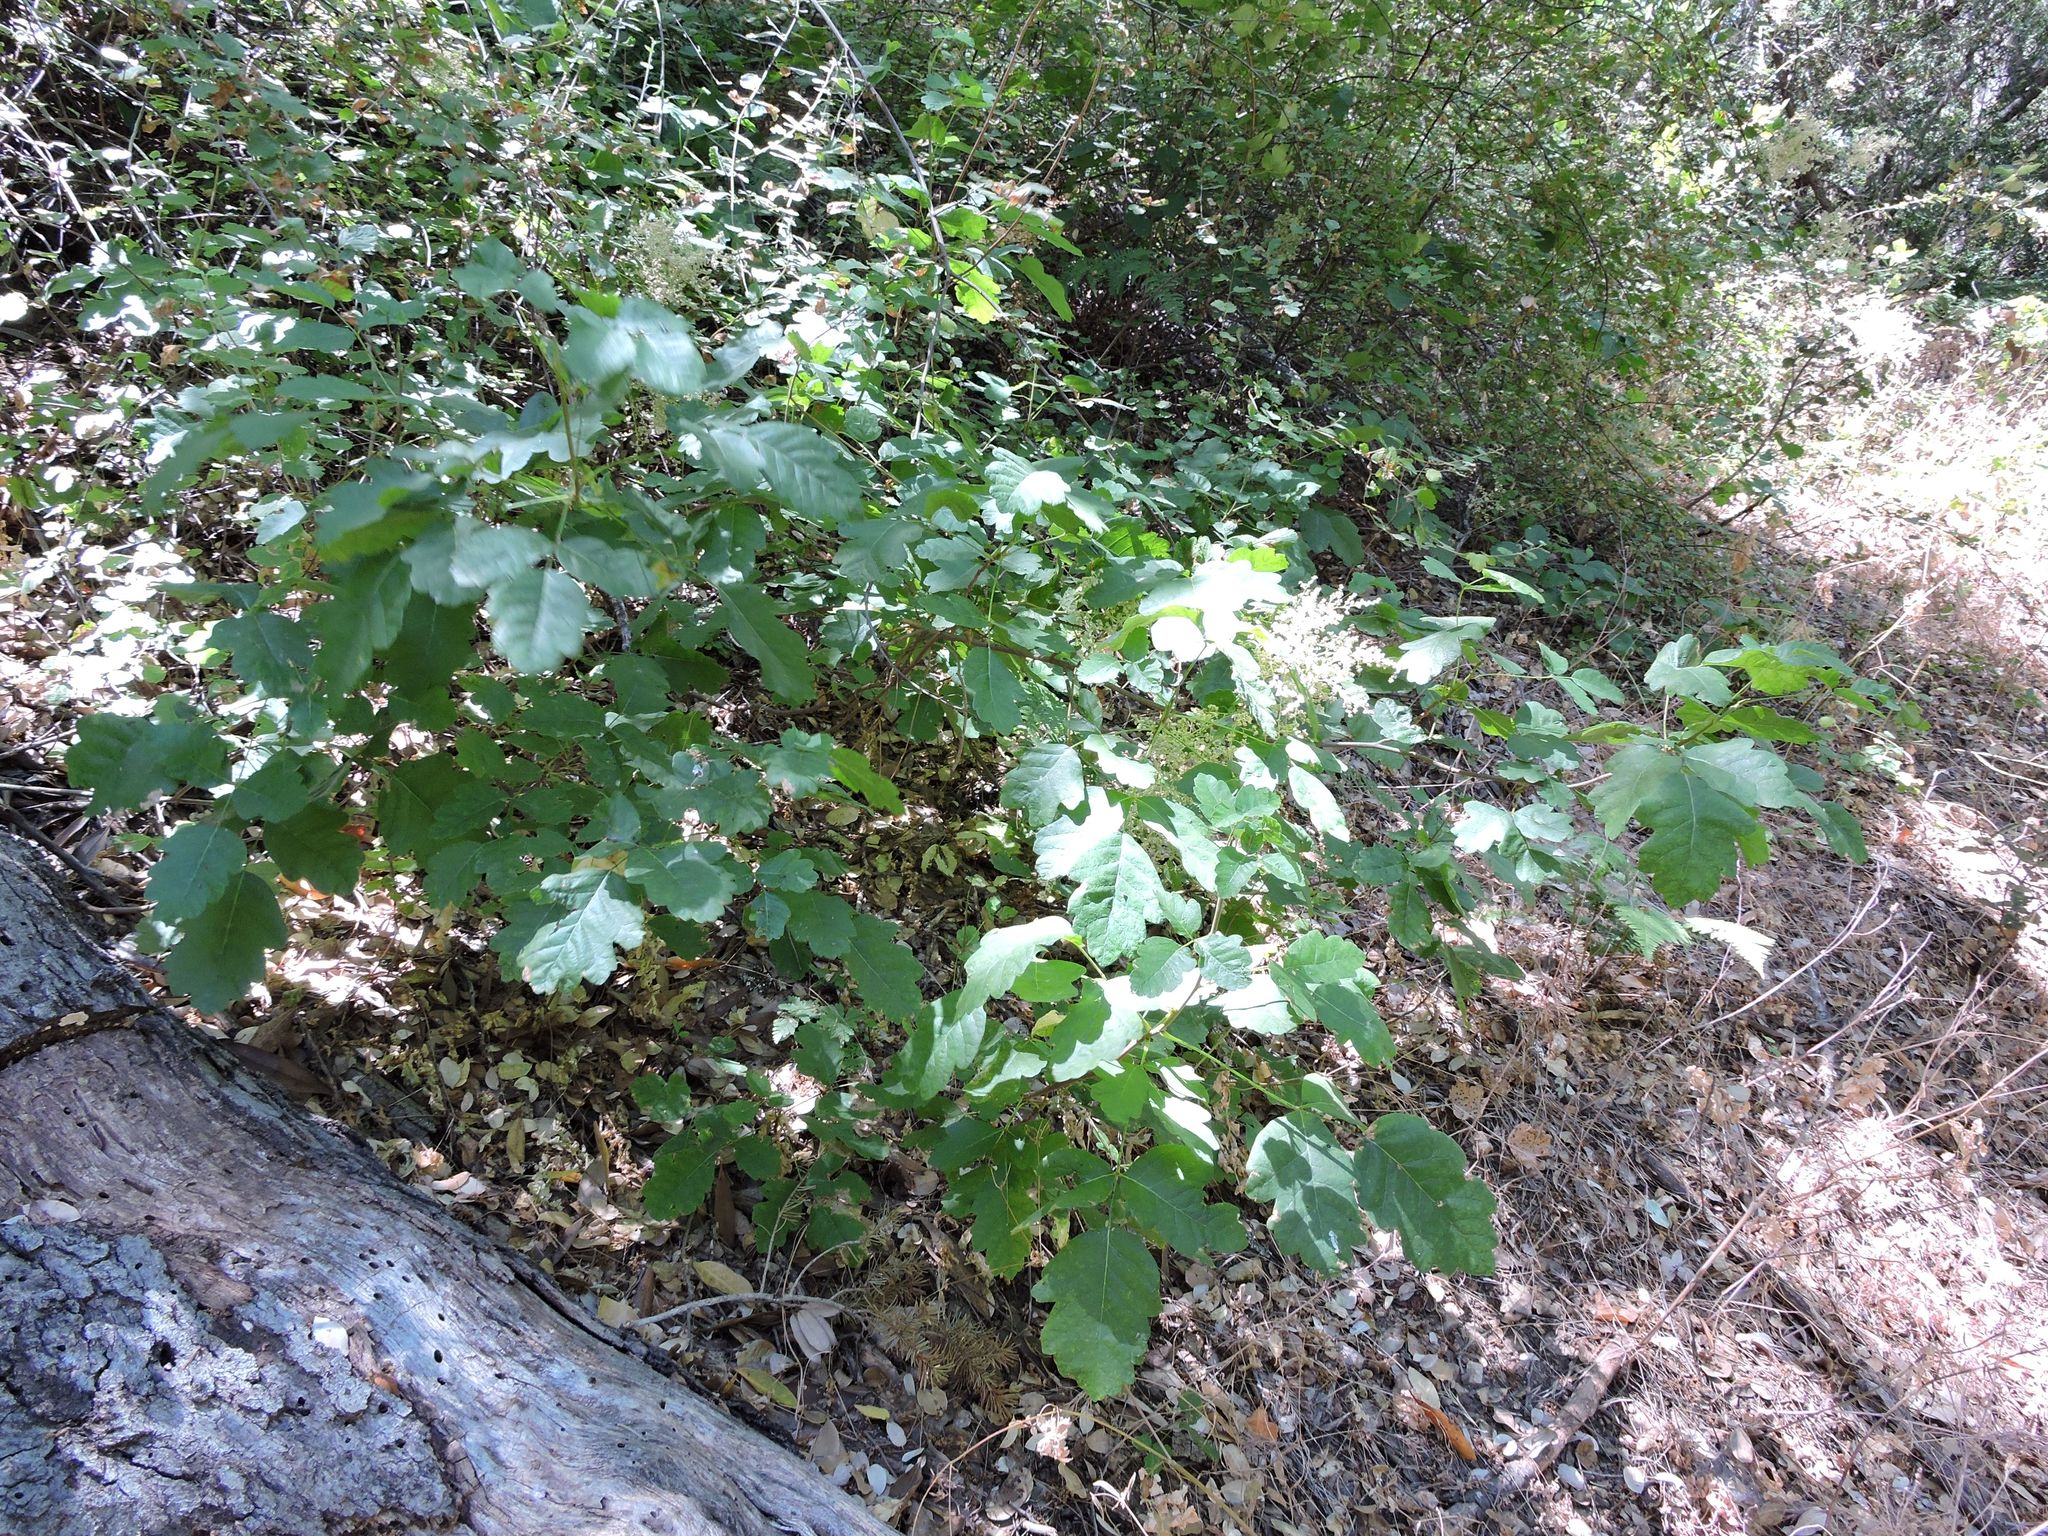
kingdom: Plantae
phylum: Tracheophyta
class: Magnoliopsida
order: Sapindales
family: Anacardiaceae
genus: Toxicodendron
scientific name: Toxicodendron diversilobum
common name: Pacific poison-oak
